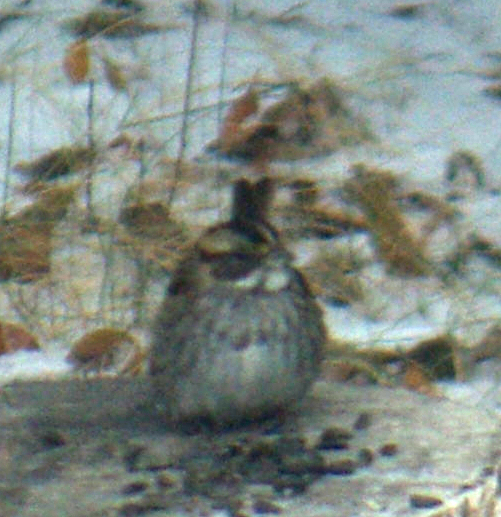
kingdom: Animalia
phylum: Chordata
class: Aves
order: Passeriformes
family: Passerellidae
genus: Zonotrichia
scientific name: Zonotrichia albicollis
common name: White-throated sparrow
